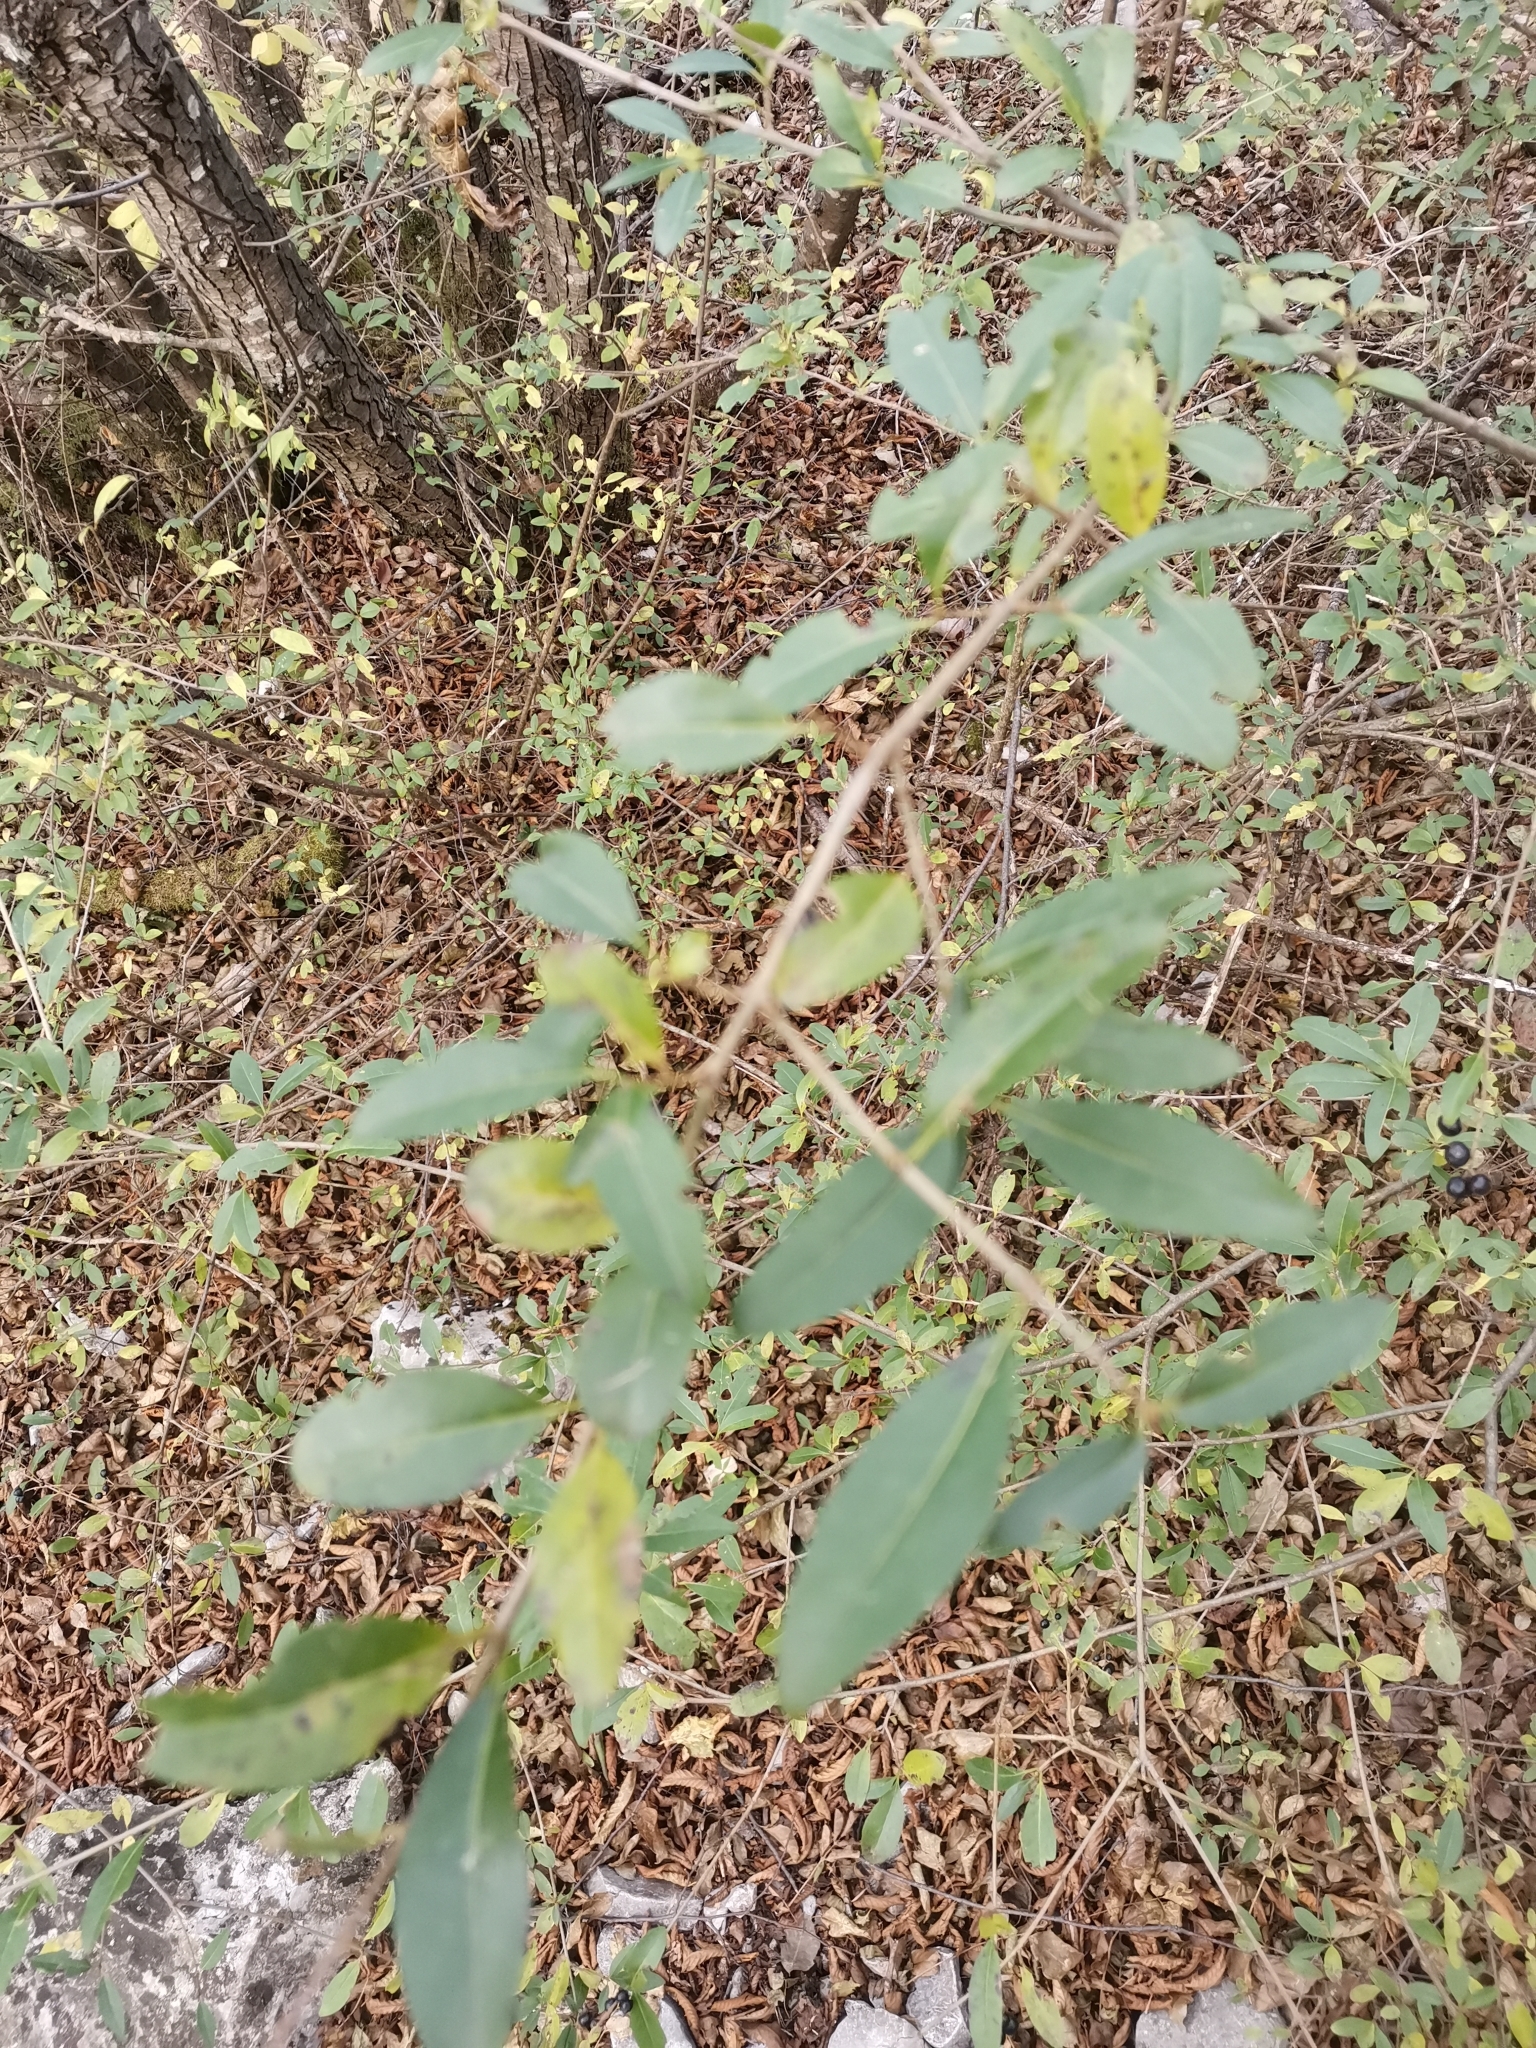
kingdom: Plantae
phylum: Tracheophyta
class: Magnoliopsida
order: Lamiales
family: Oleaceae
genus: Ligustrum
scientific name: Ligustrum vulgare
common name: Wild privet
